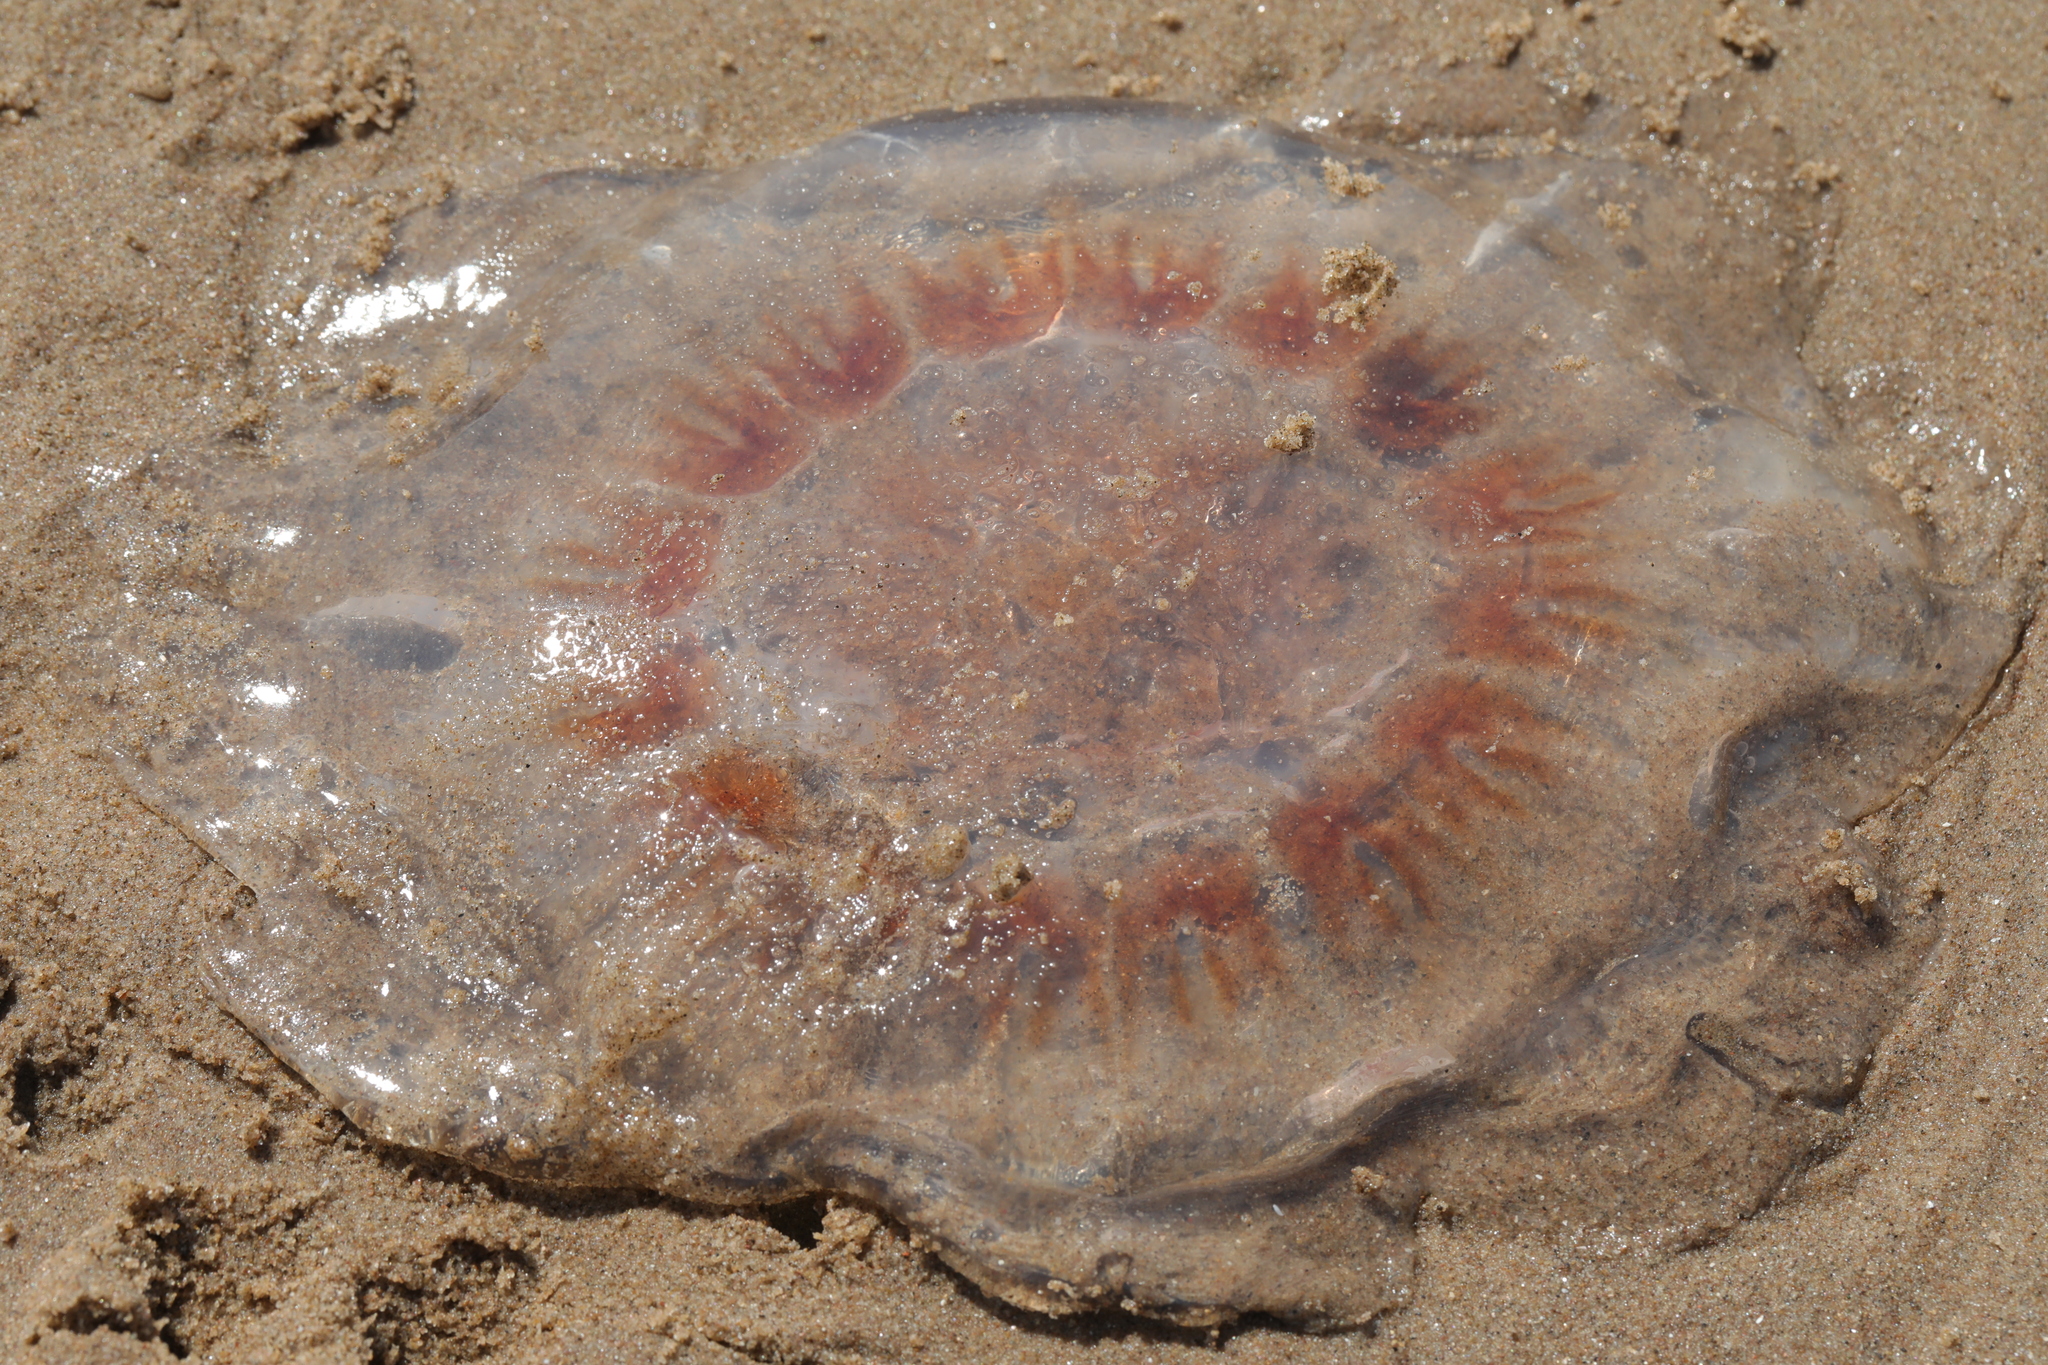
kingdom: Animalia
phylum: Cnidaria
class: Scyphozoa
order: Semaeostomeae
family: Cyaneidae
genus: Cyanea
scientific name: Cyanea capillata
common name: Lion's mane jellyfish
